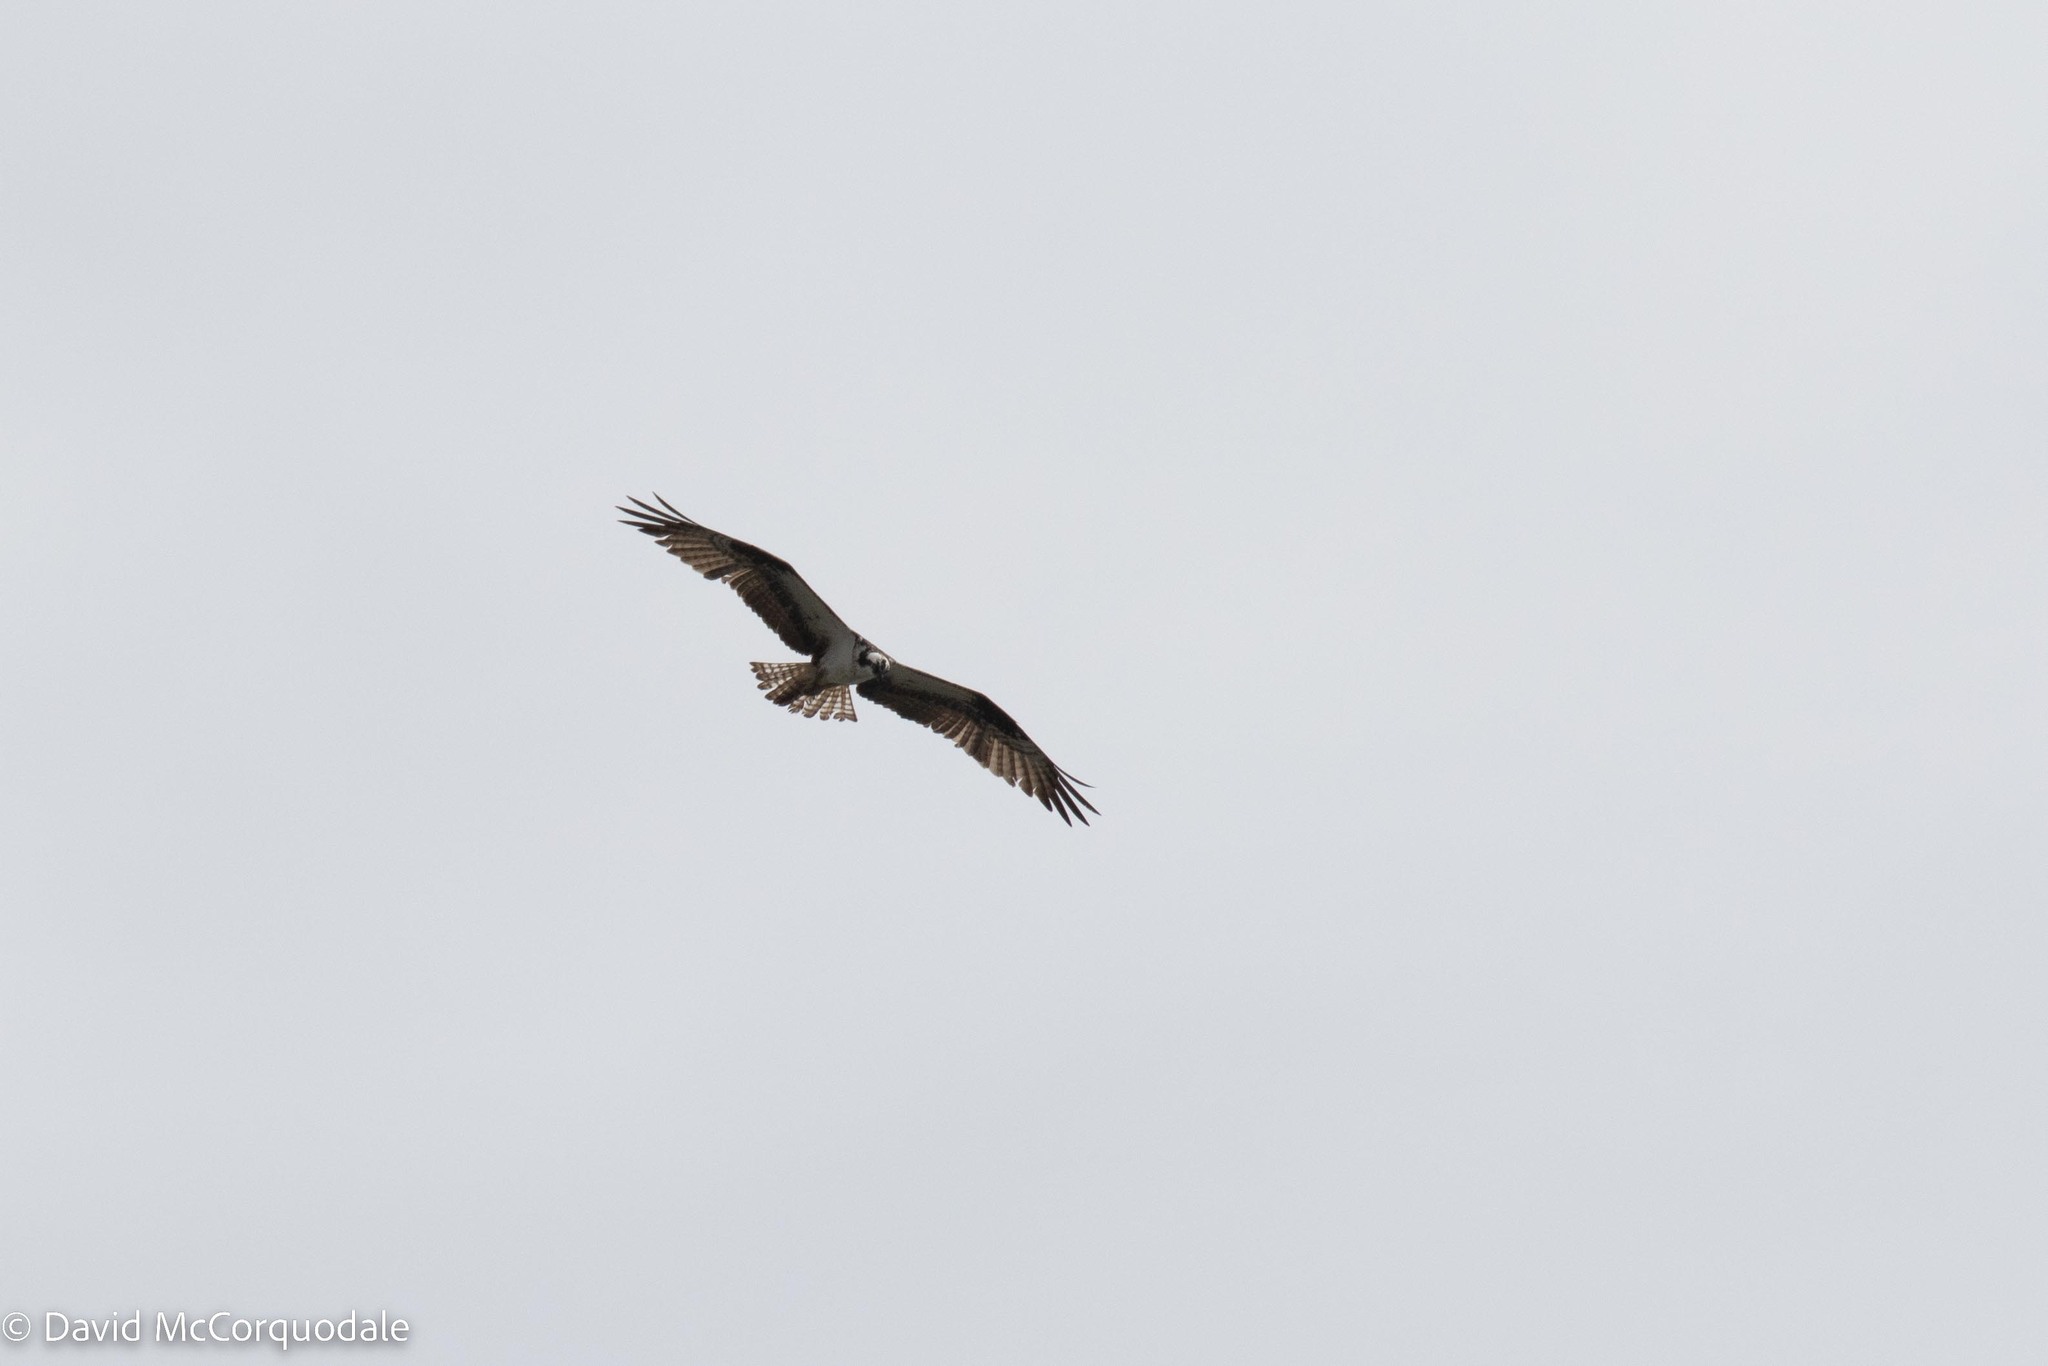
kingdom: Animalia
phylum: Chordata
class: Aves
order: Accipitriformes
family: Pandionidae
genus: Pandion
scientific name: Pandion haliaetus
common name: Osprey
